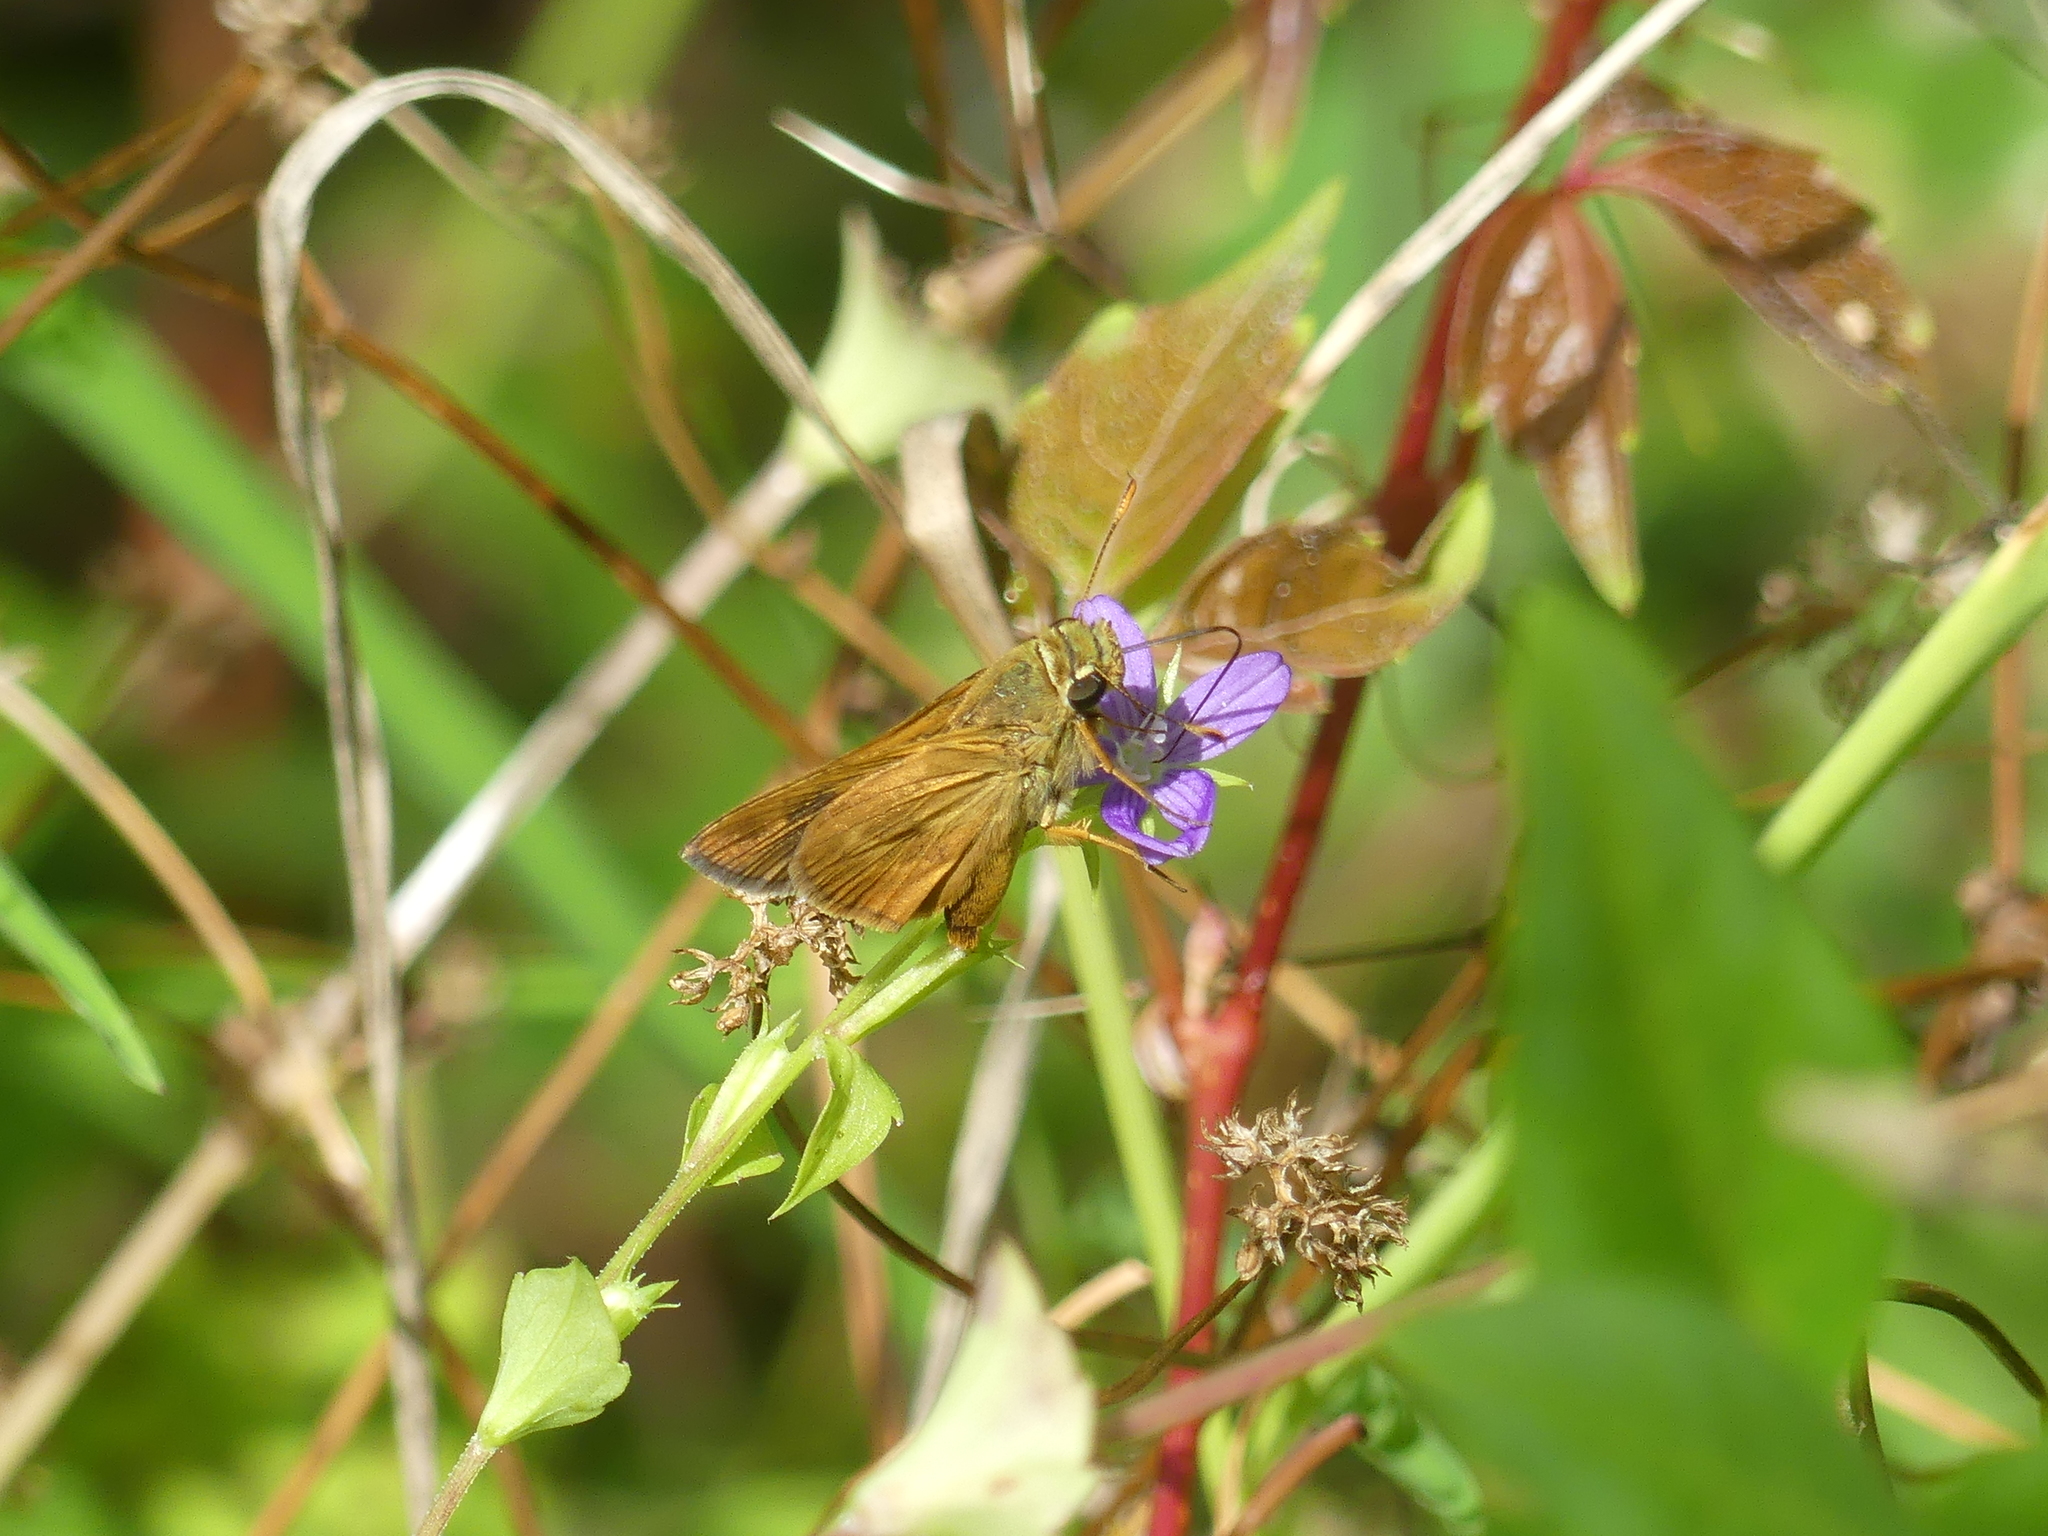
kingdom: Animalia
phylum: Arthropoda
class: Insecta
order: Lepidoptera
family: Hesperiidae
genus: Polites
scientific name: Polites otho
